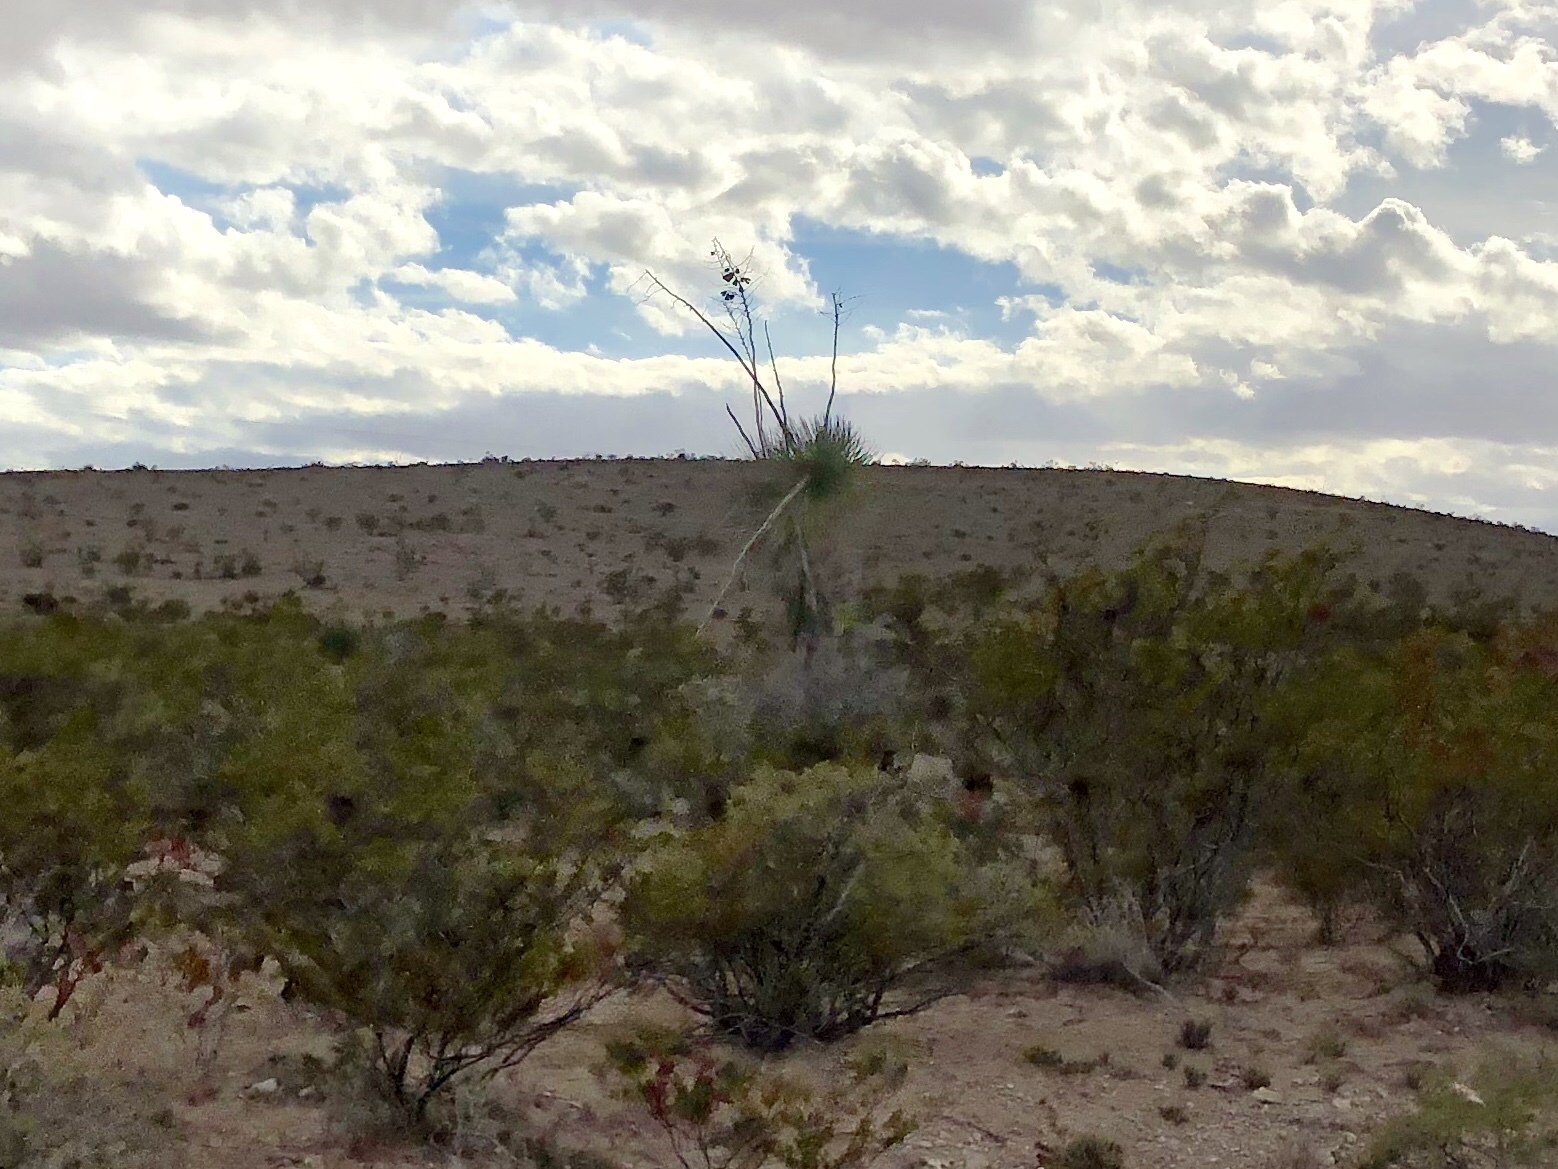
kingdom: Plantae
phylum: Tracheophyta
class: Liliopsida
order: Asparagales
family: Asparagaceae
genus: Yucca
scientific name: Yucca elata
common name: Palmella
